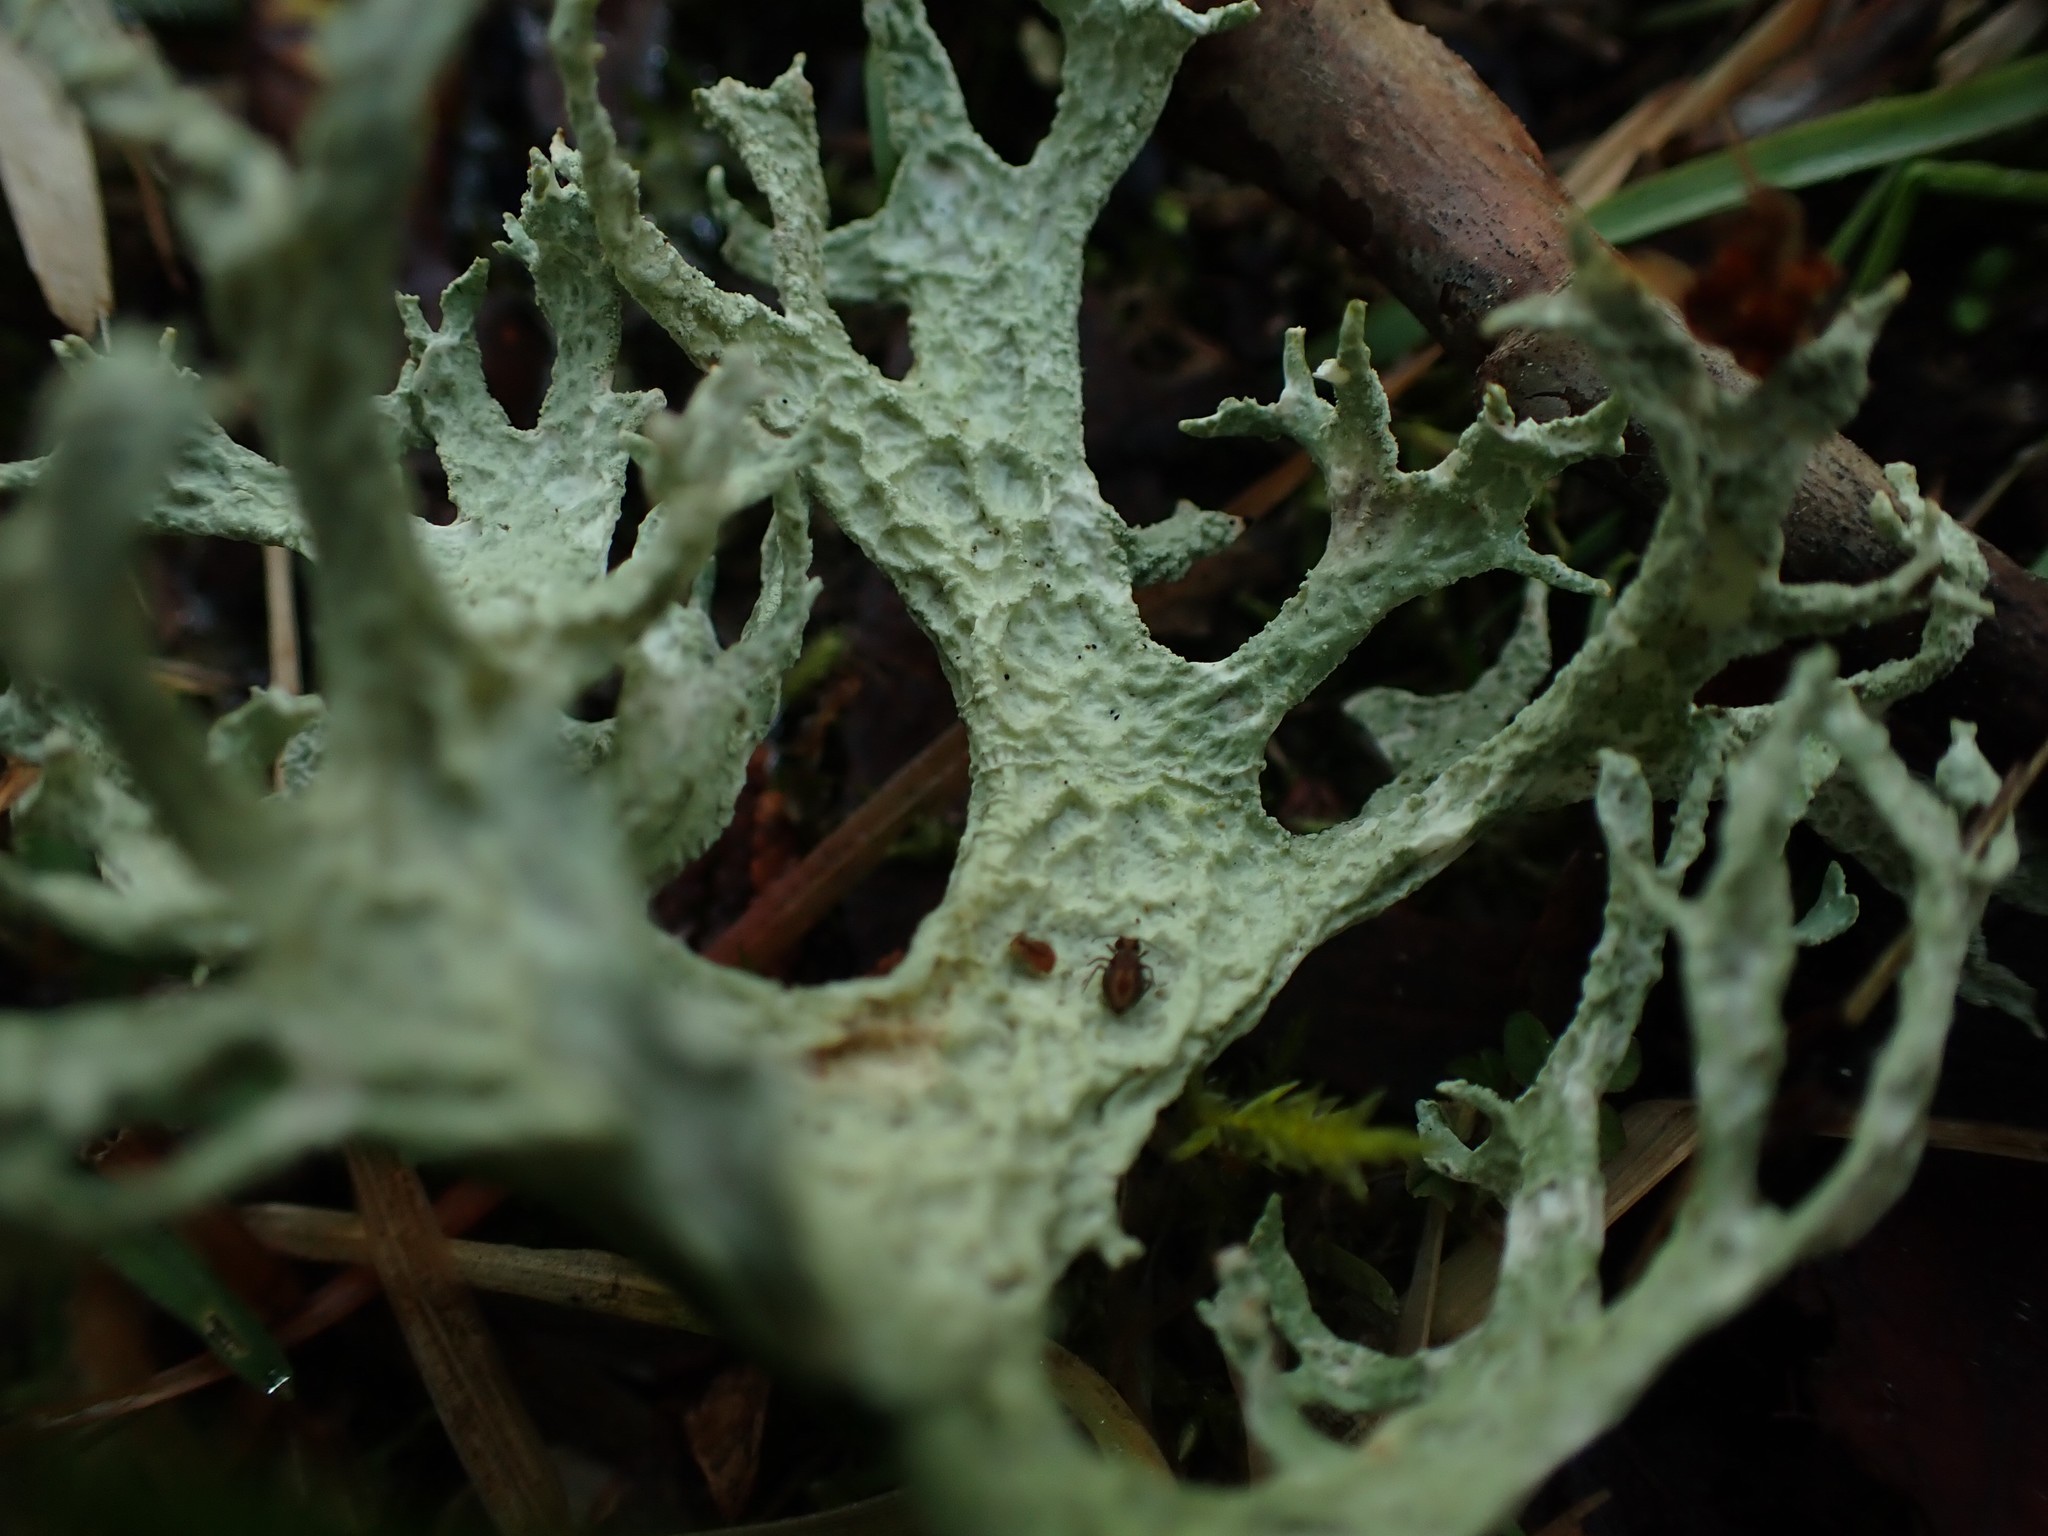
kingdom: Fungi
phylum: Ascomycota
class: Lecanoromycetes
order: Lecanorales
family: Parmeliaceae
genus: Evernia
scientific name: Evernia prunastri
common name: Oak moss
